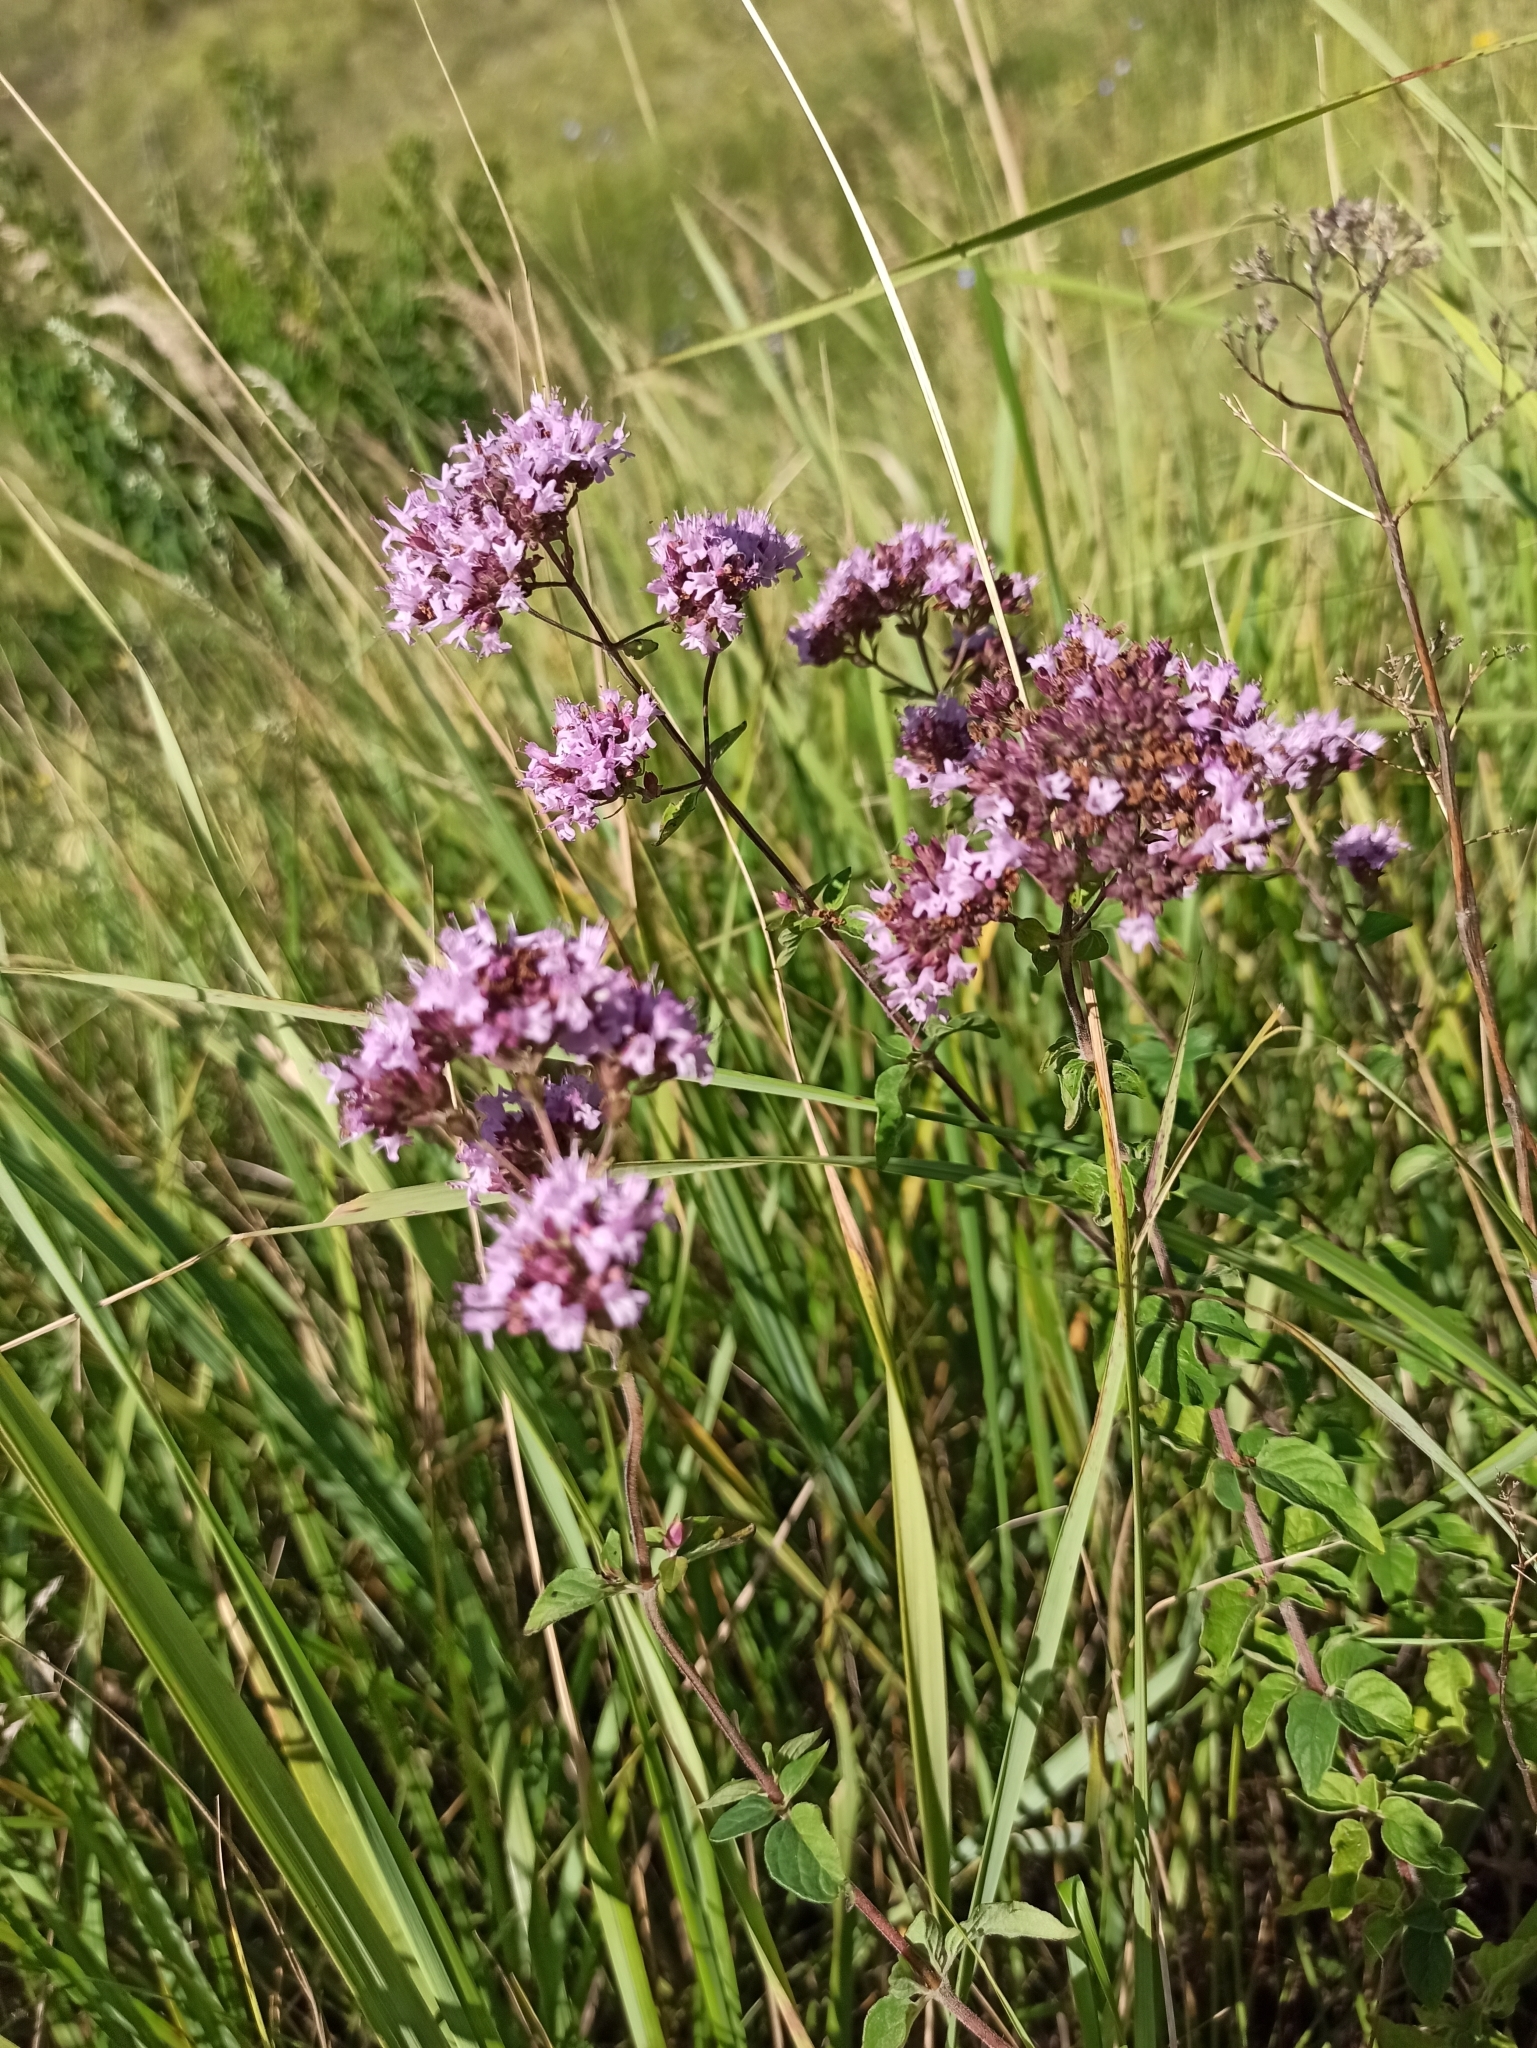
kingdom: Plantae
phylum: Tracheophyta
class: Magnoliopsida
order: Lamiales
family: Lamiaceae
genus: Origanum
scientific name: Origanum vulgare
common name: Wild marjoram
